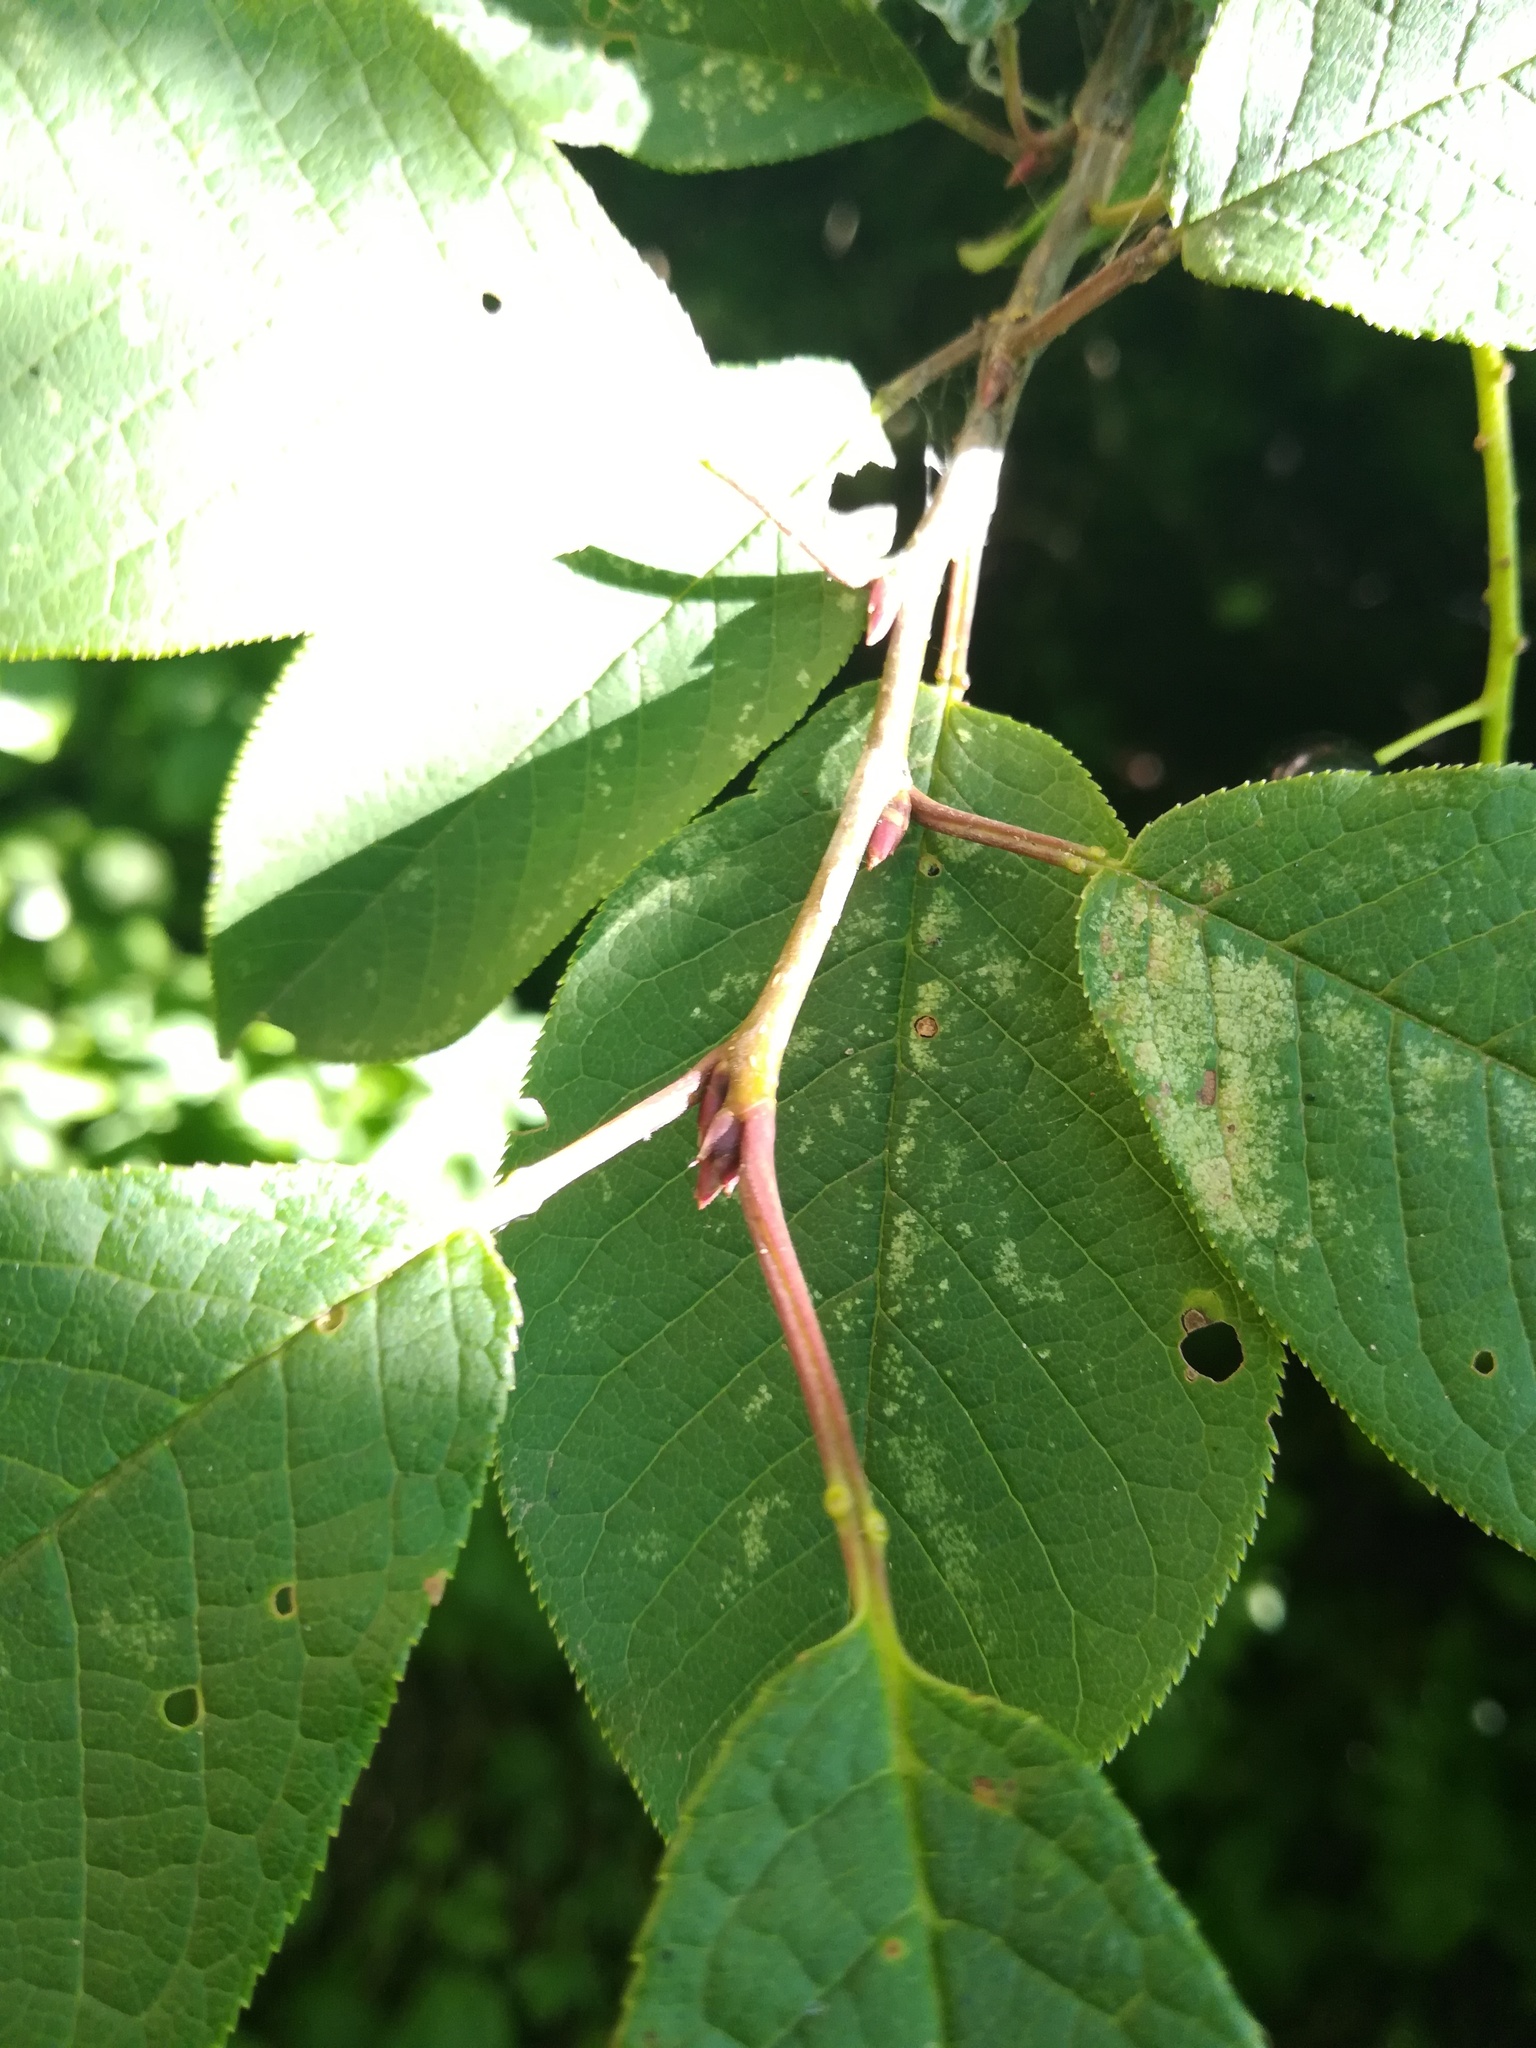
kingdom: Plantae
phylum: Tracheophyta
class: Magnoliopsida
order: Rosales
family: Rosaceae
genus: Prunus
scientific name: Prunus padus
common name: Bird cherry
